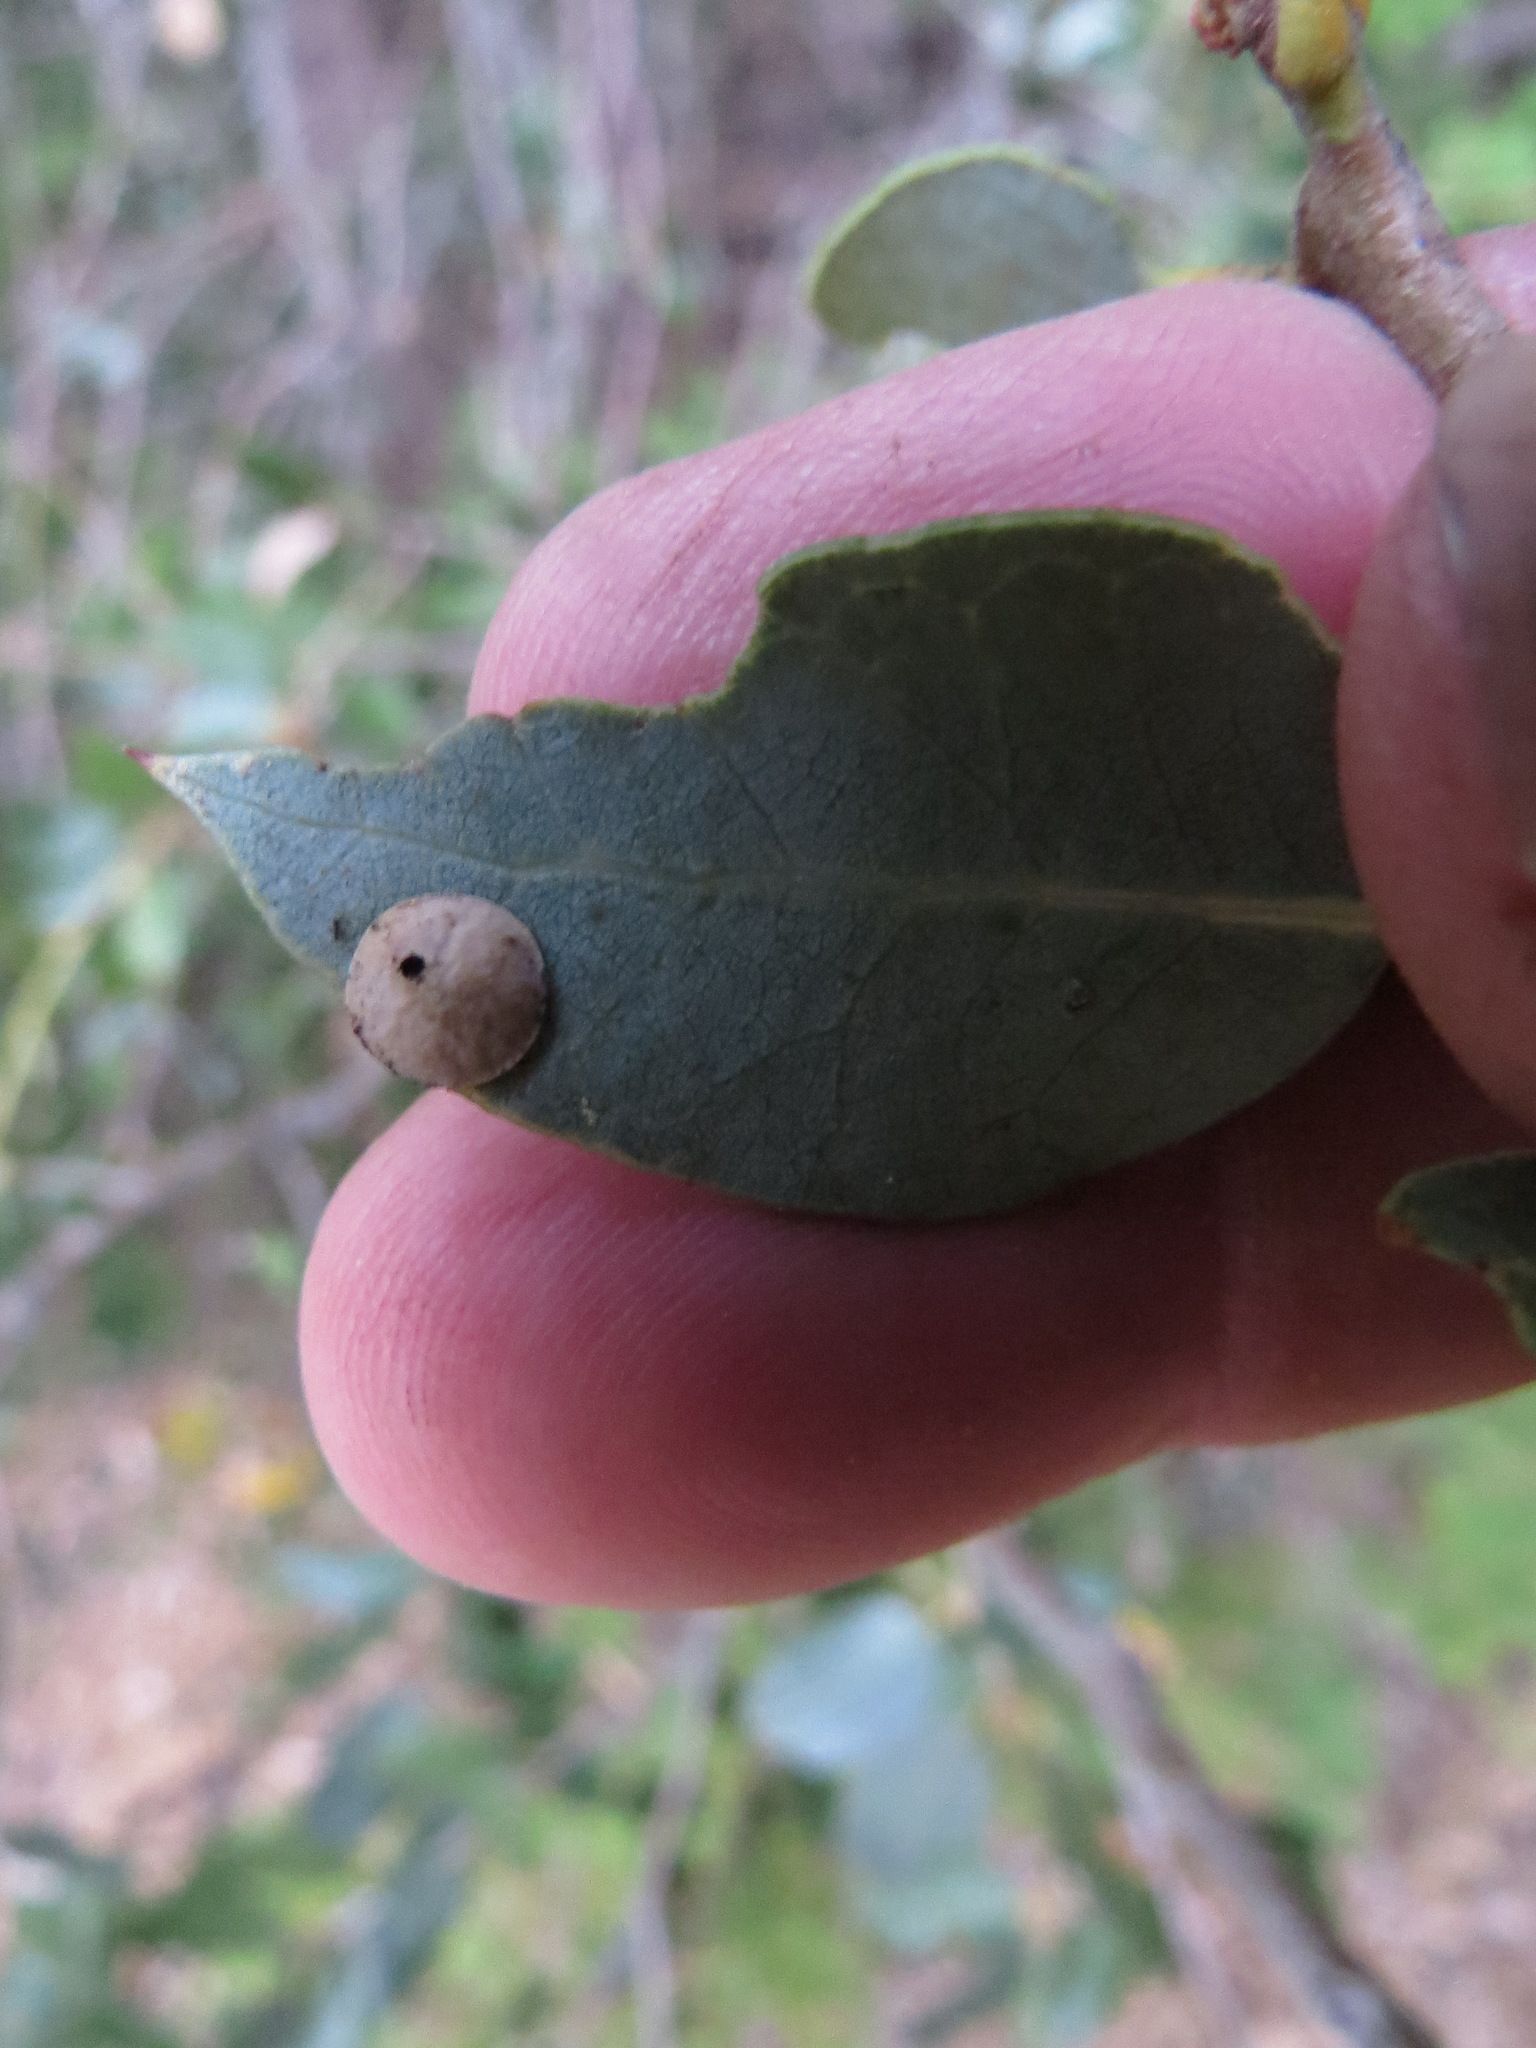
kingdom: Animalia
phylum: Arthropoda
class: Insecta
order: Hymenoptera
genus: Paracraspis
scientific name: Paracraspis
